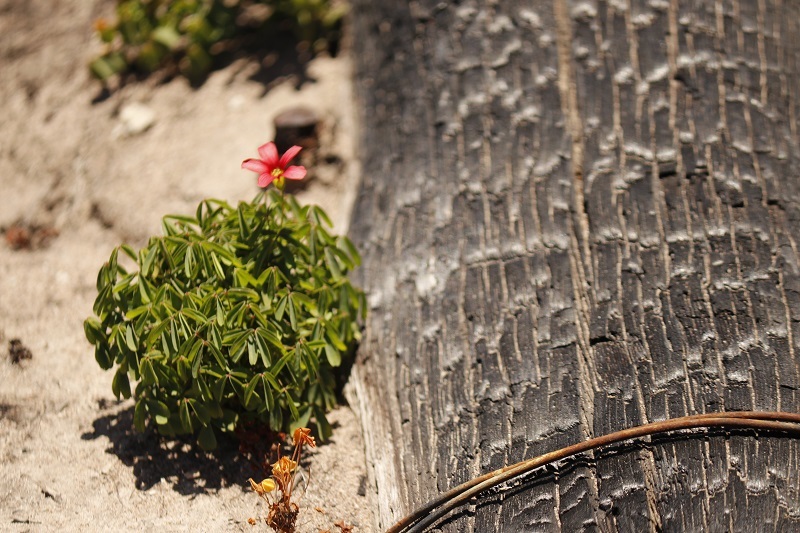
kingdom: Plantae
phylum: Tracheophyta
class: Magnoliopsida
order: Oxalidales
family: Oxalidaceae
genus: Oxalis
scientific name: Oxalis pendulifolia
